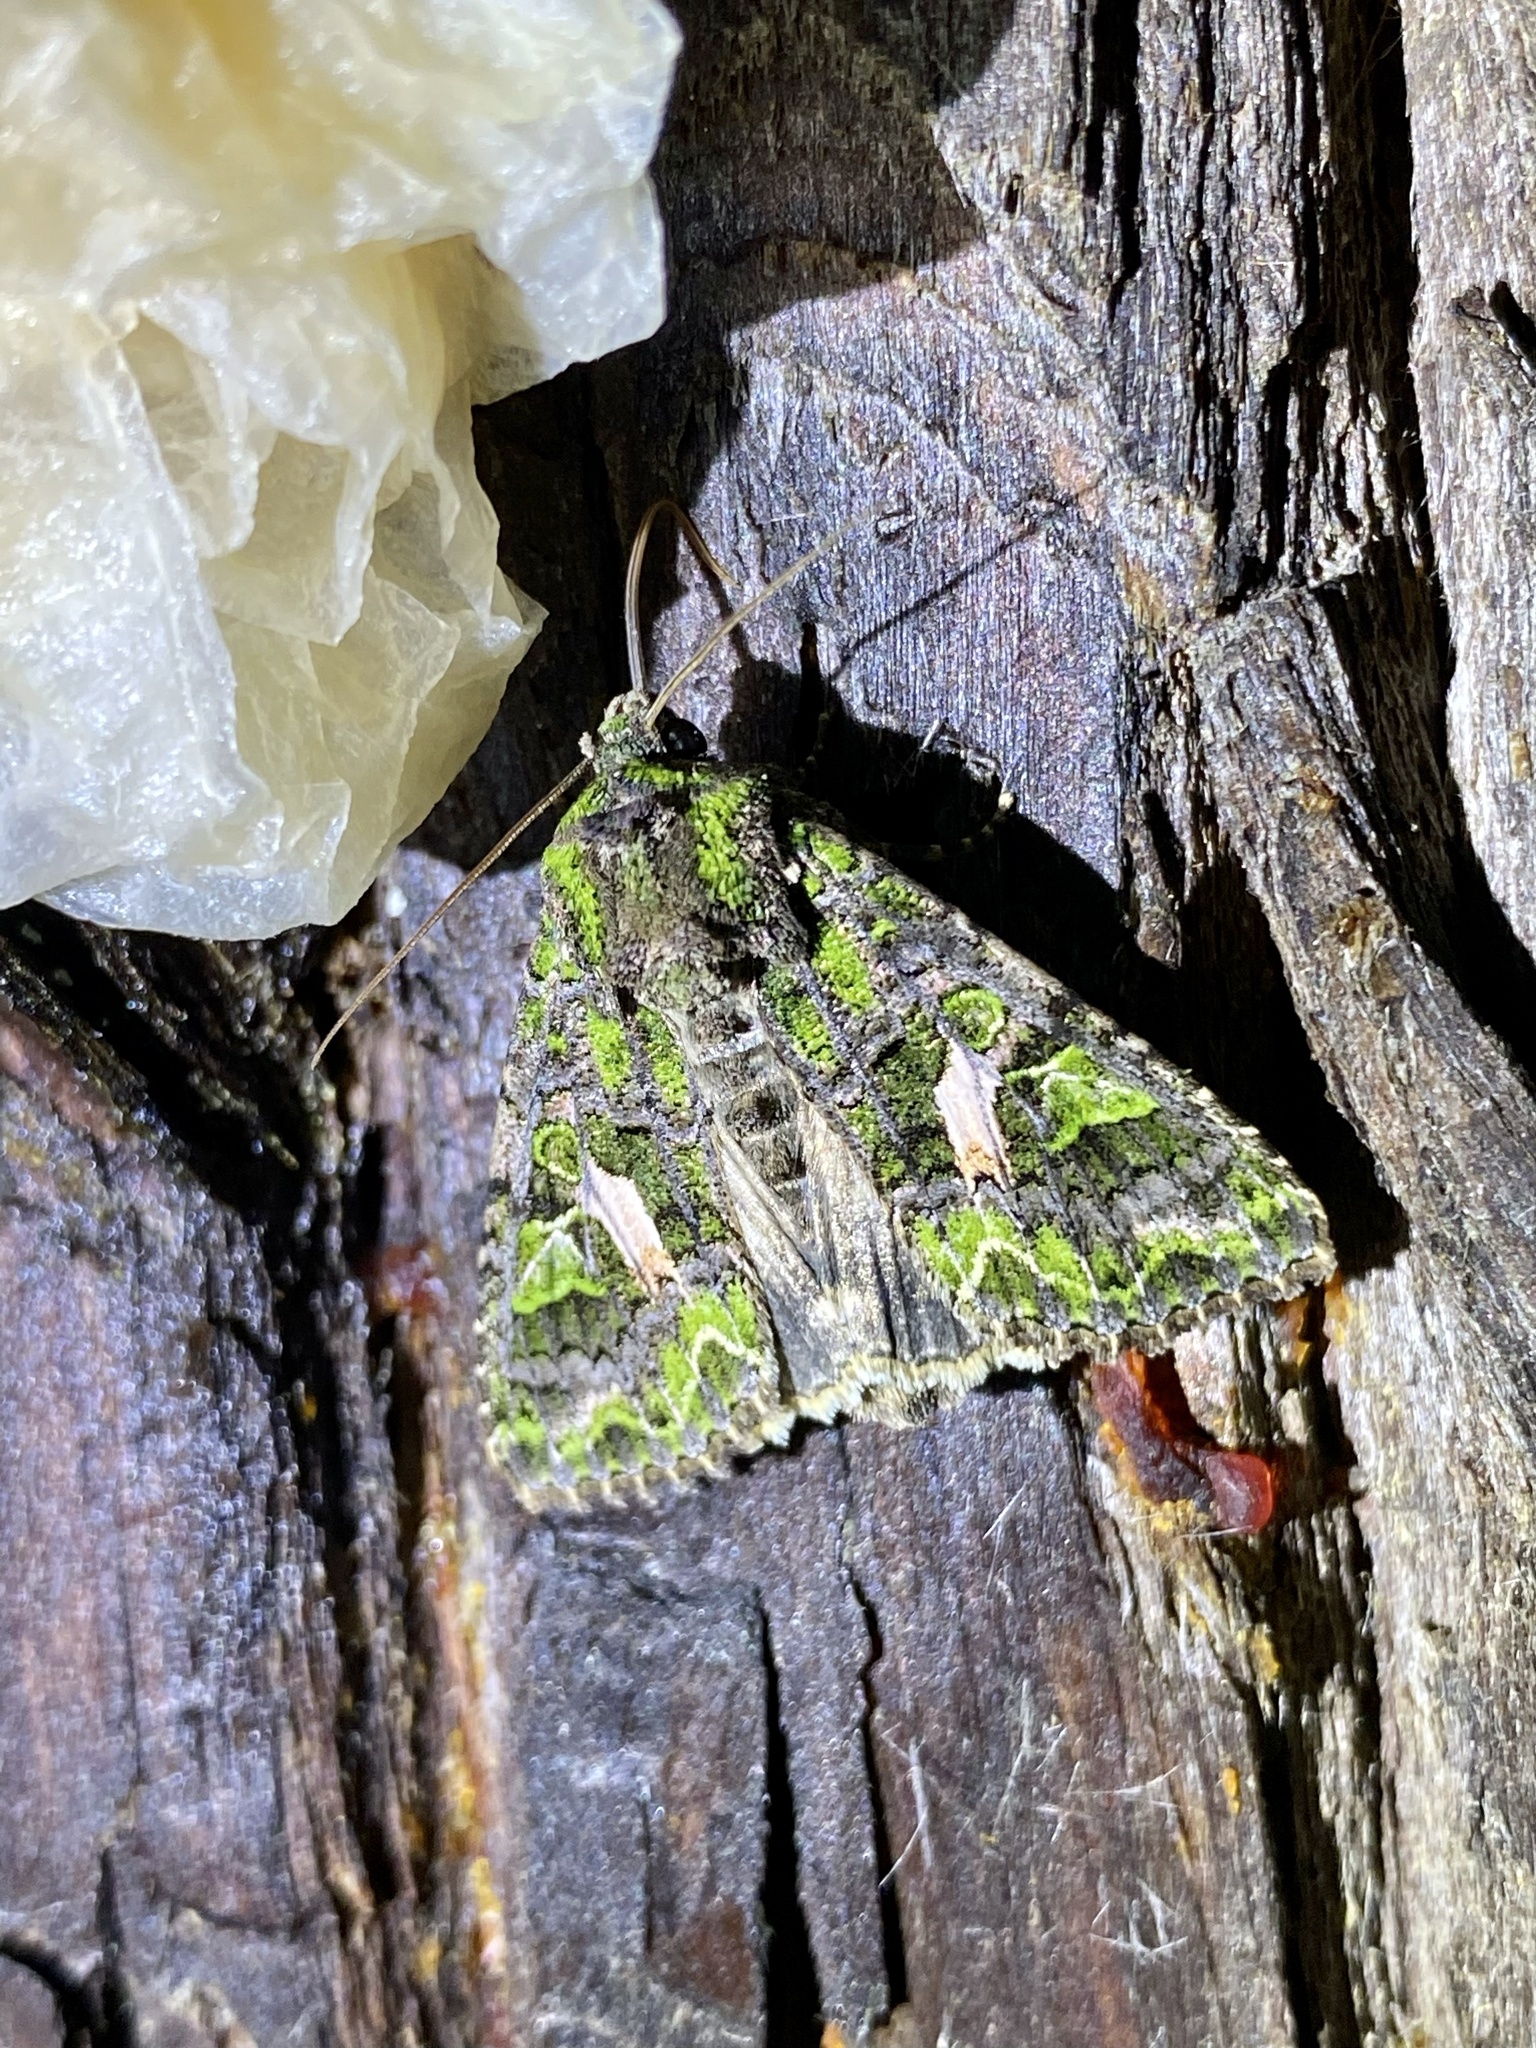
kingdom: Animalia
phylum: Arthropoda
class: Insecta
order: Lepidoptera
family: Noctuidae
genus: Trachea
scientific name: Trachea atriplicis
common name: Orache moth
